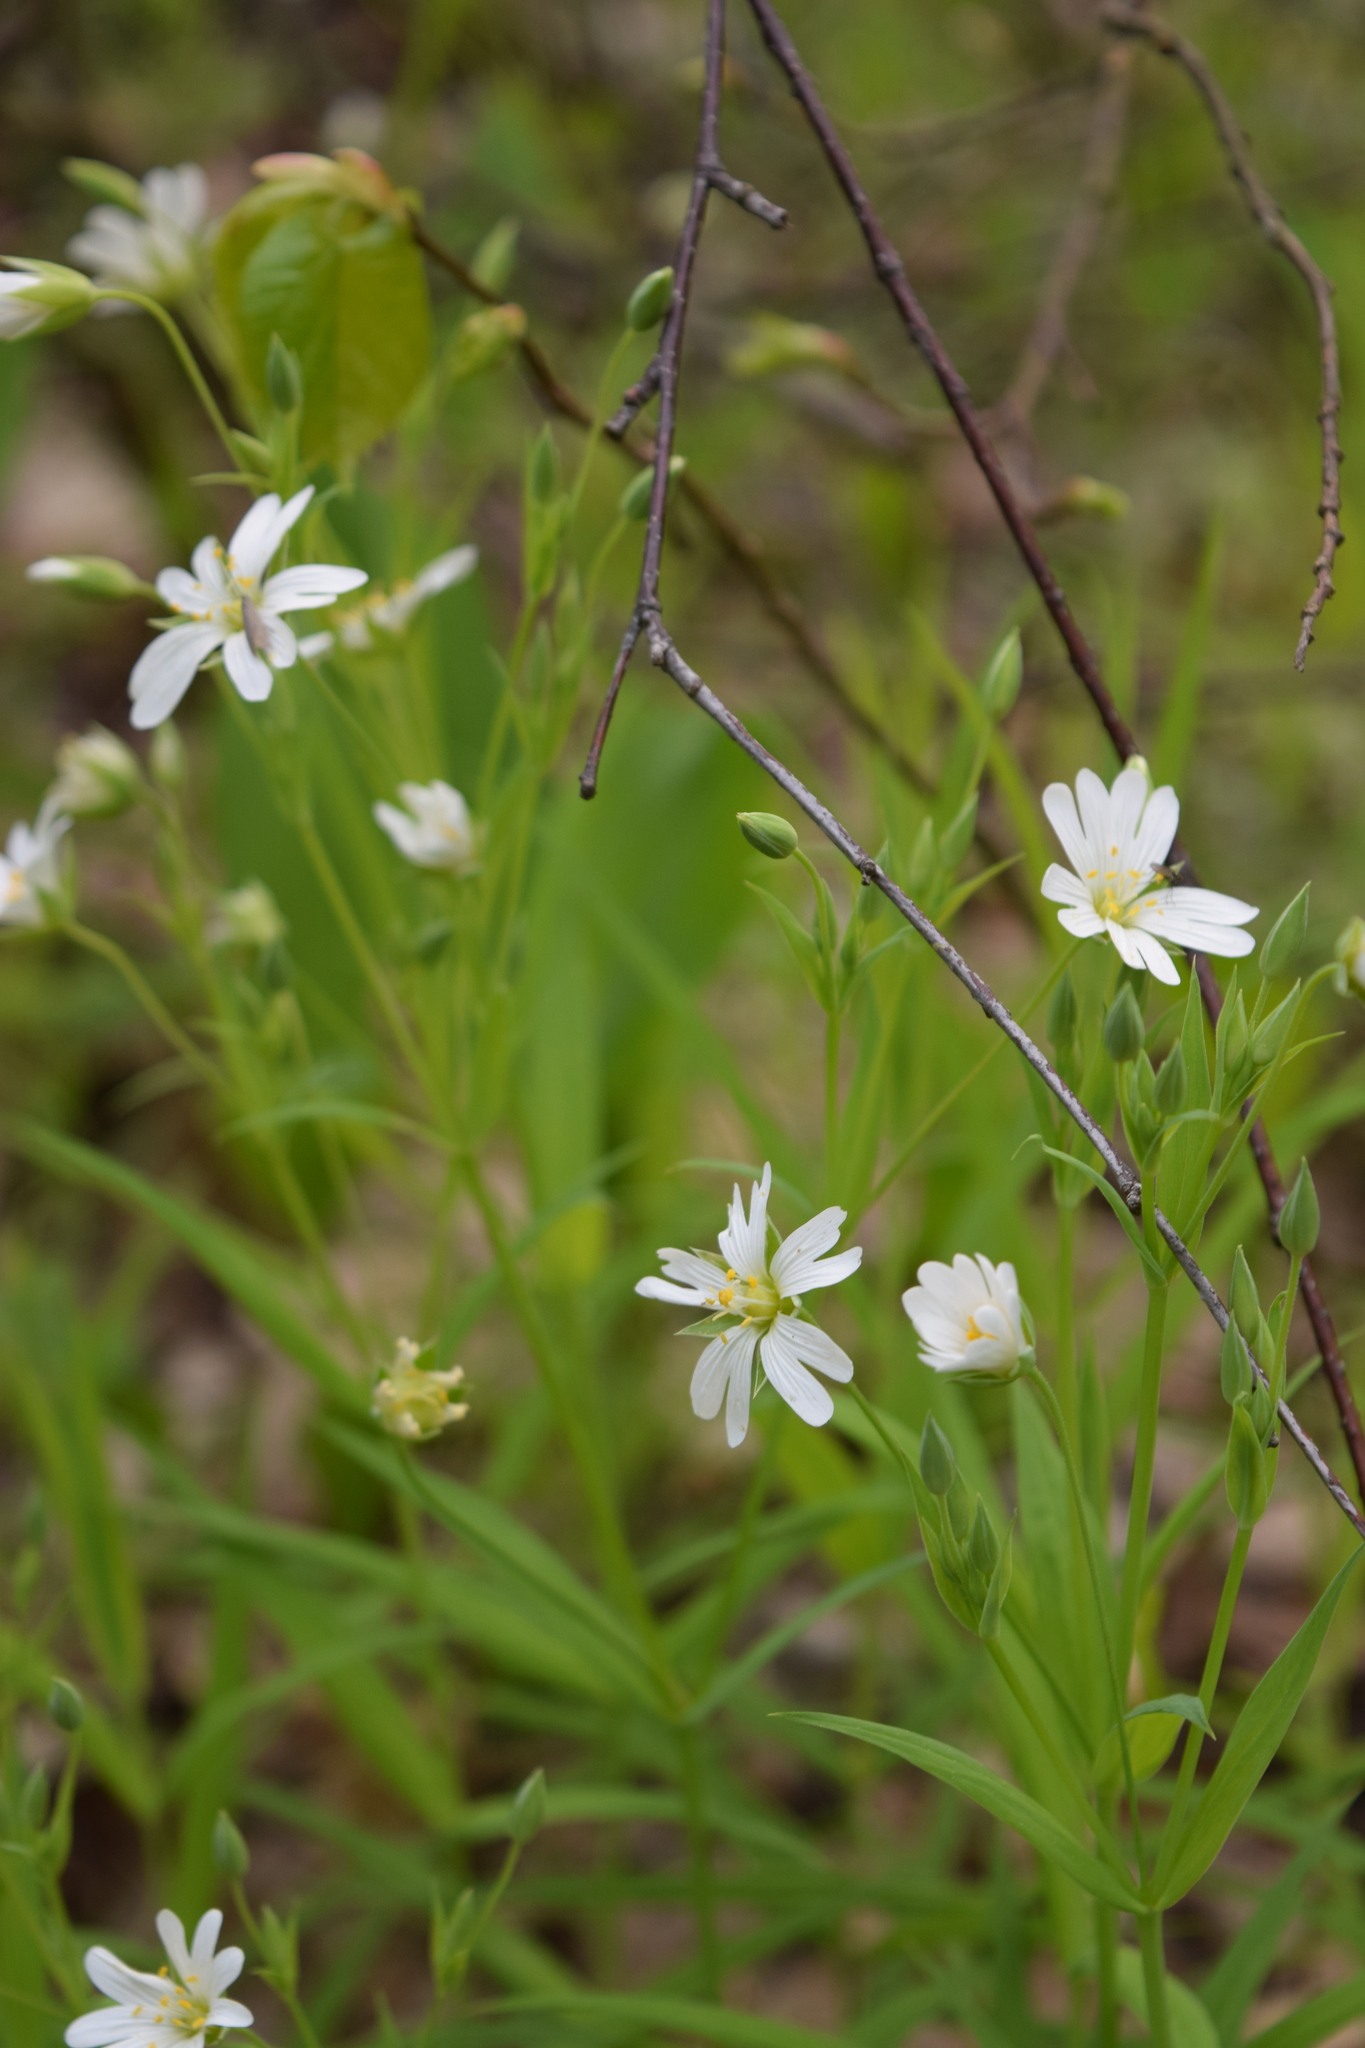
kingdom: Plantae
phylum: Tracheophyta
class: Magnoliopsida
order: Caryophyllales
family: Caryophyllaceae
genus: Rabelera
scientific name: Rabelera holostea
